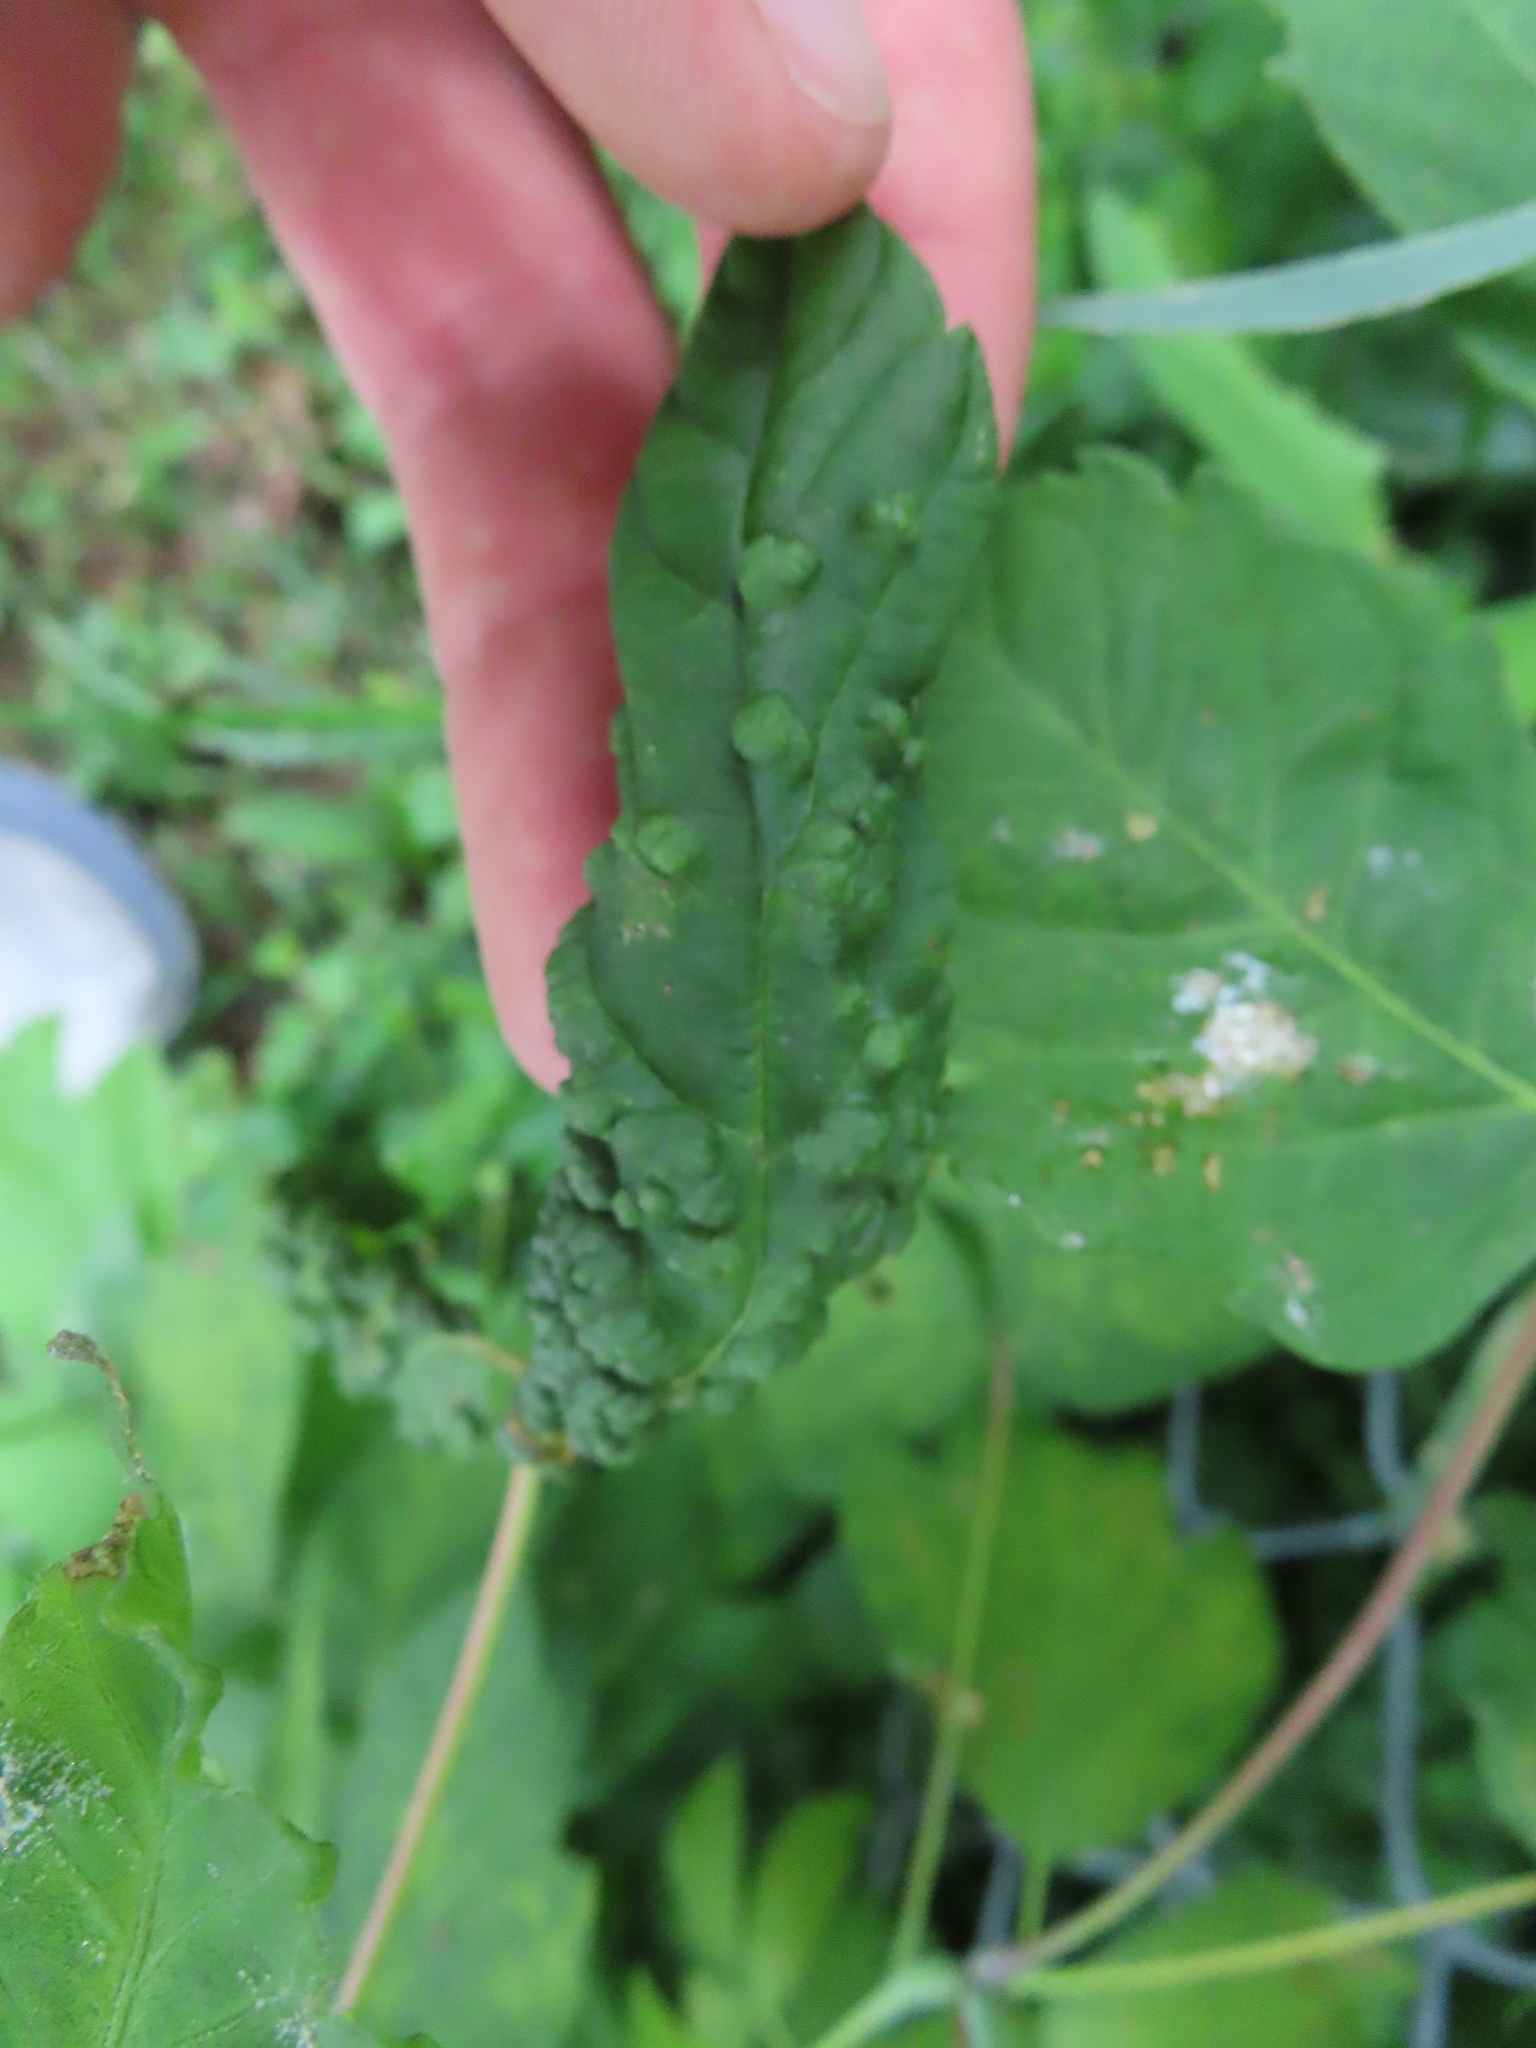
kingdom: Animalia
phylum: Arthropoda
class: Arachnida
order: Trombidiformes
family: Eriophyidae
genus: Aceria
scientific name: Aceria
